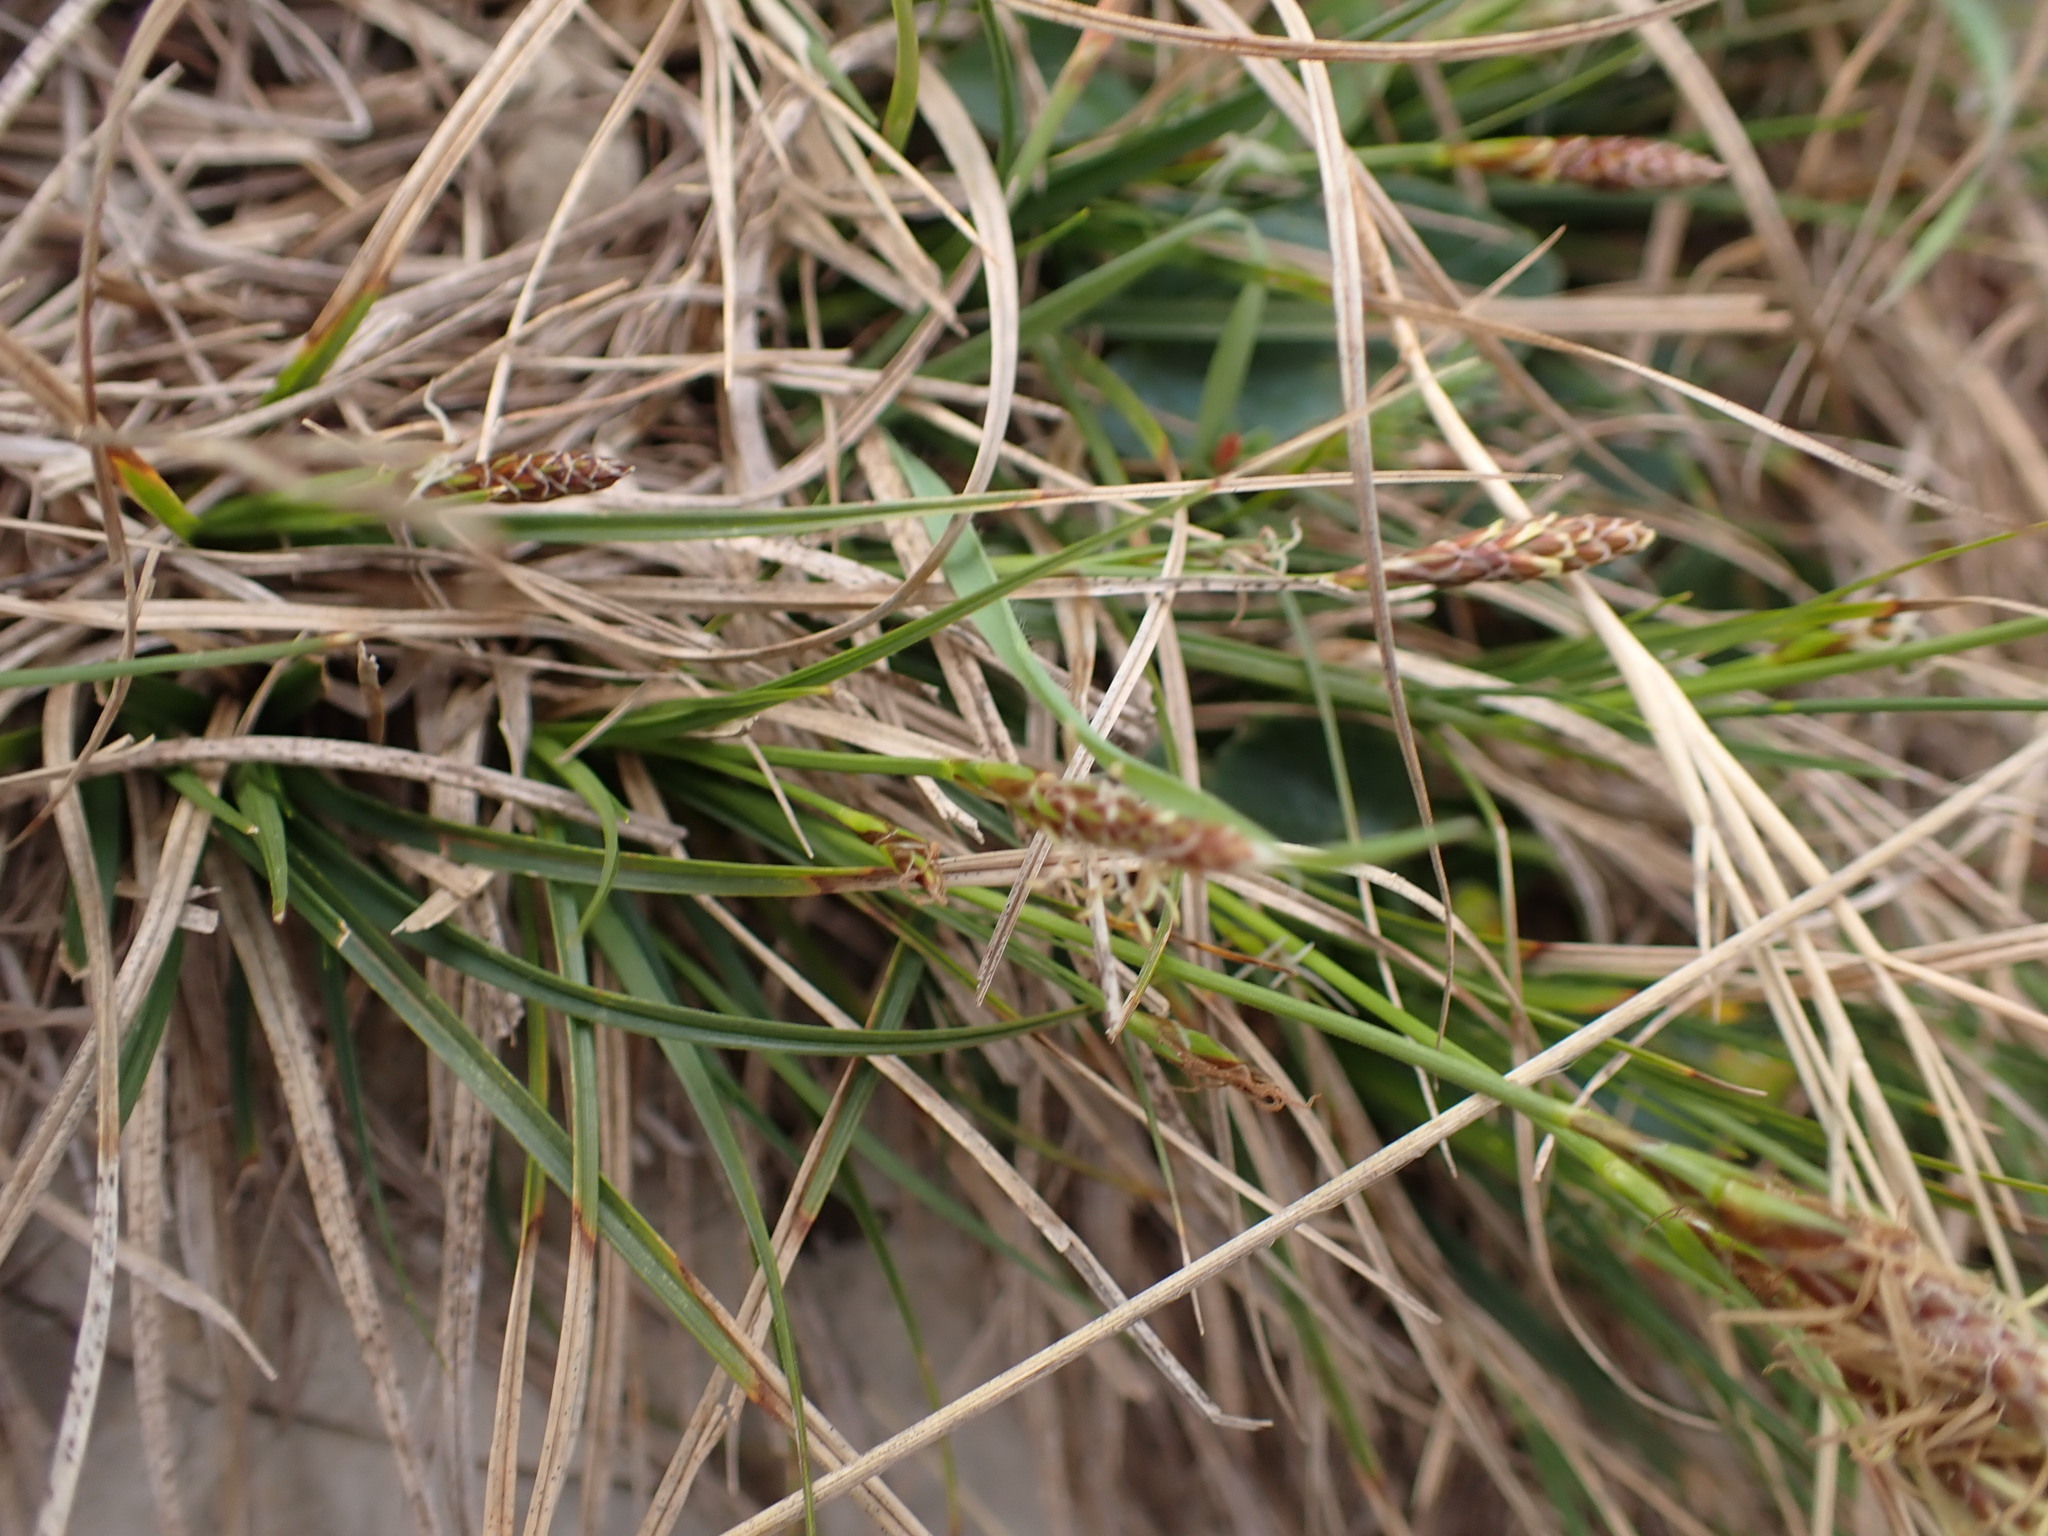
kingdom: Plantae
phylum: Tracheophyta
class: Liliopsida
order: Poales
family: Cyperaceae
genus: Carex
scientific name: Carex halleriana
